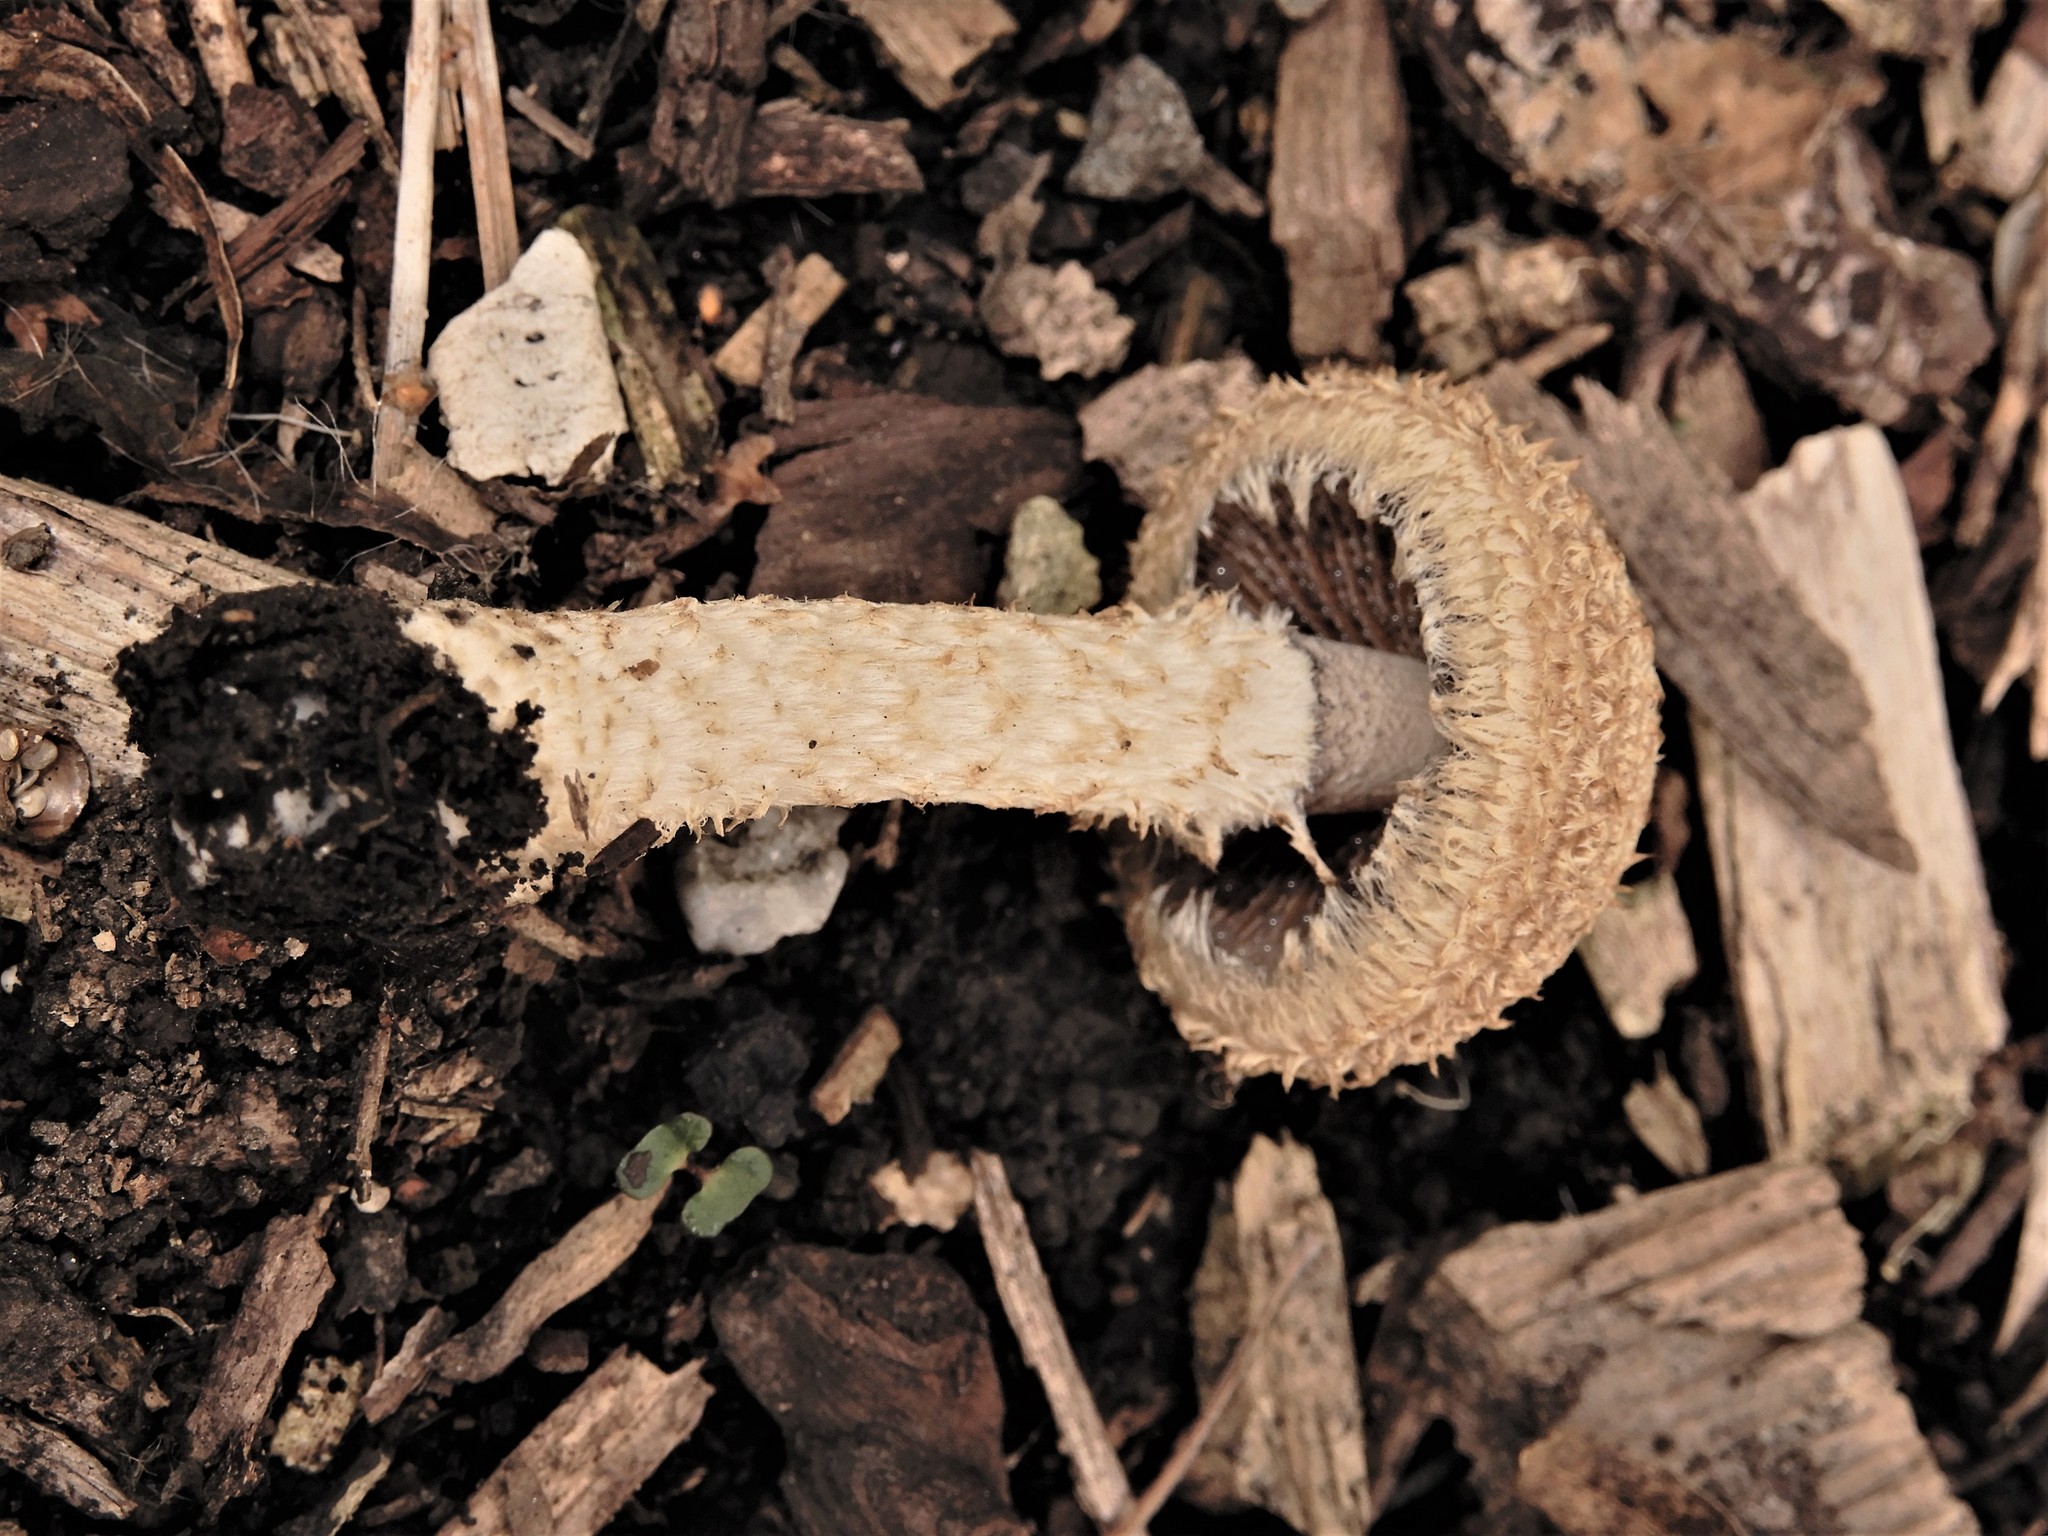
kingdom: Fungi
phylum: Basidiomycota
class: Agaricomycetes
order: Agaricales
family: Psathyrellaceae
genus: Psathyrella
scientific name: Psathyrella asperospora
